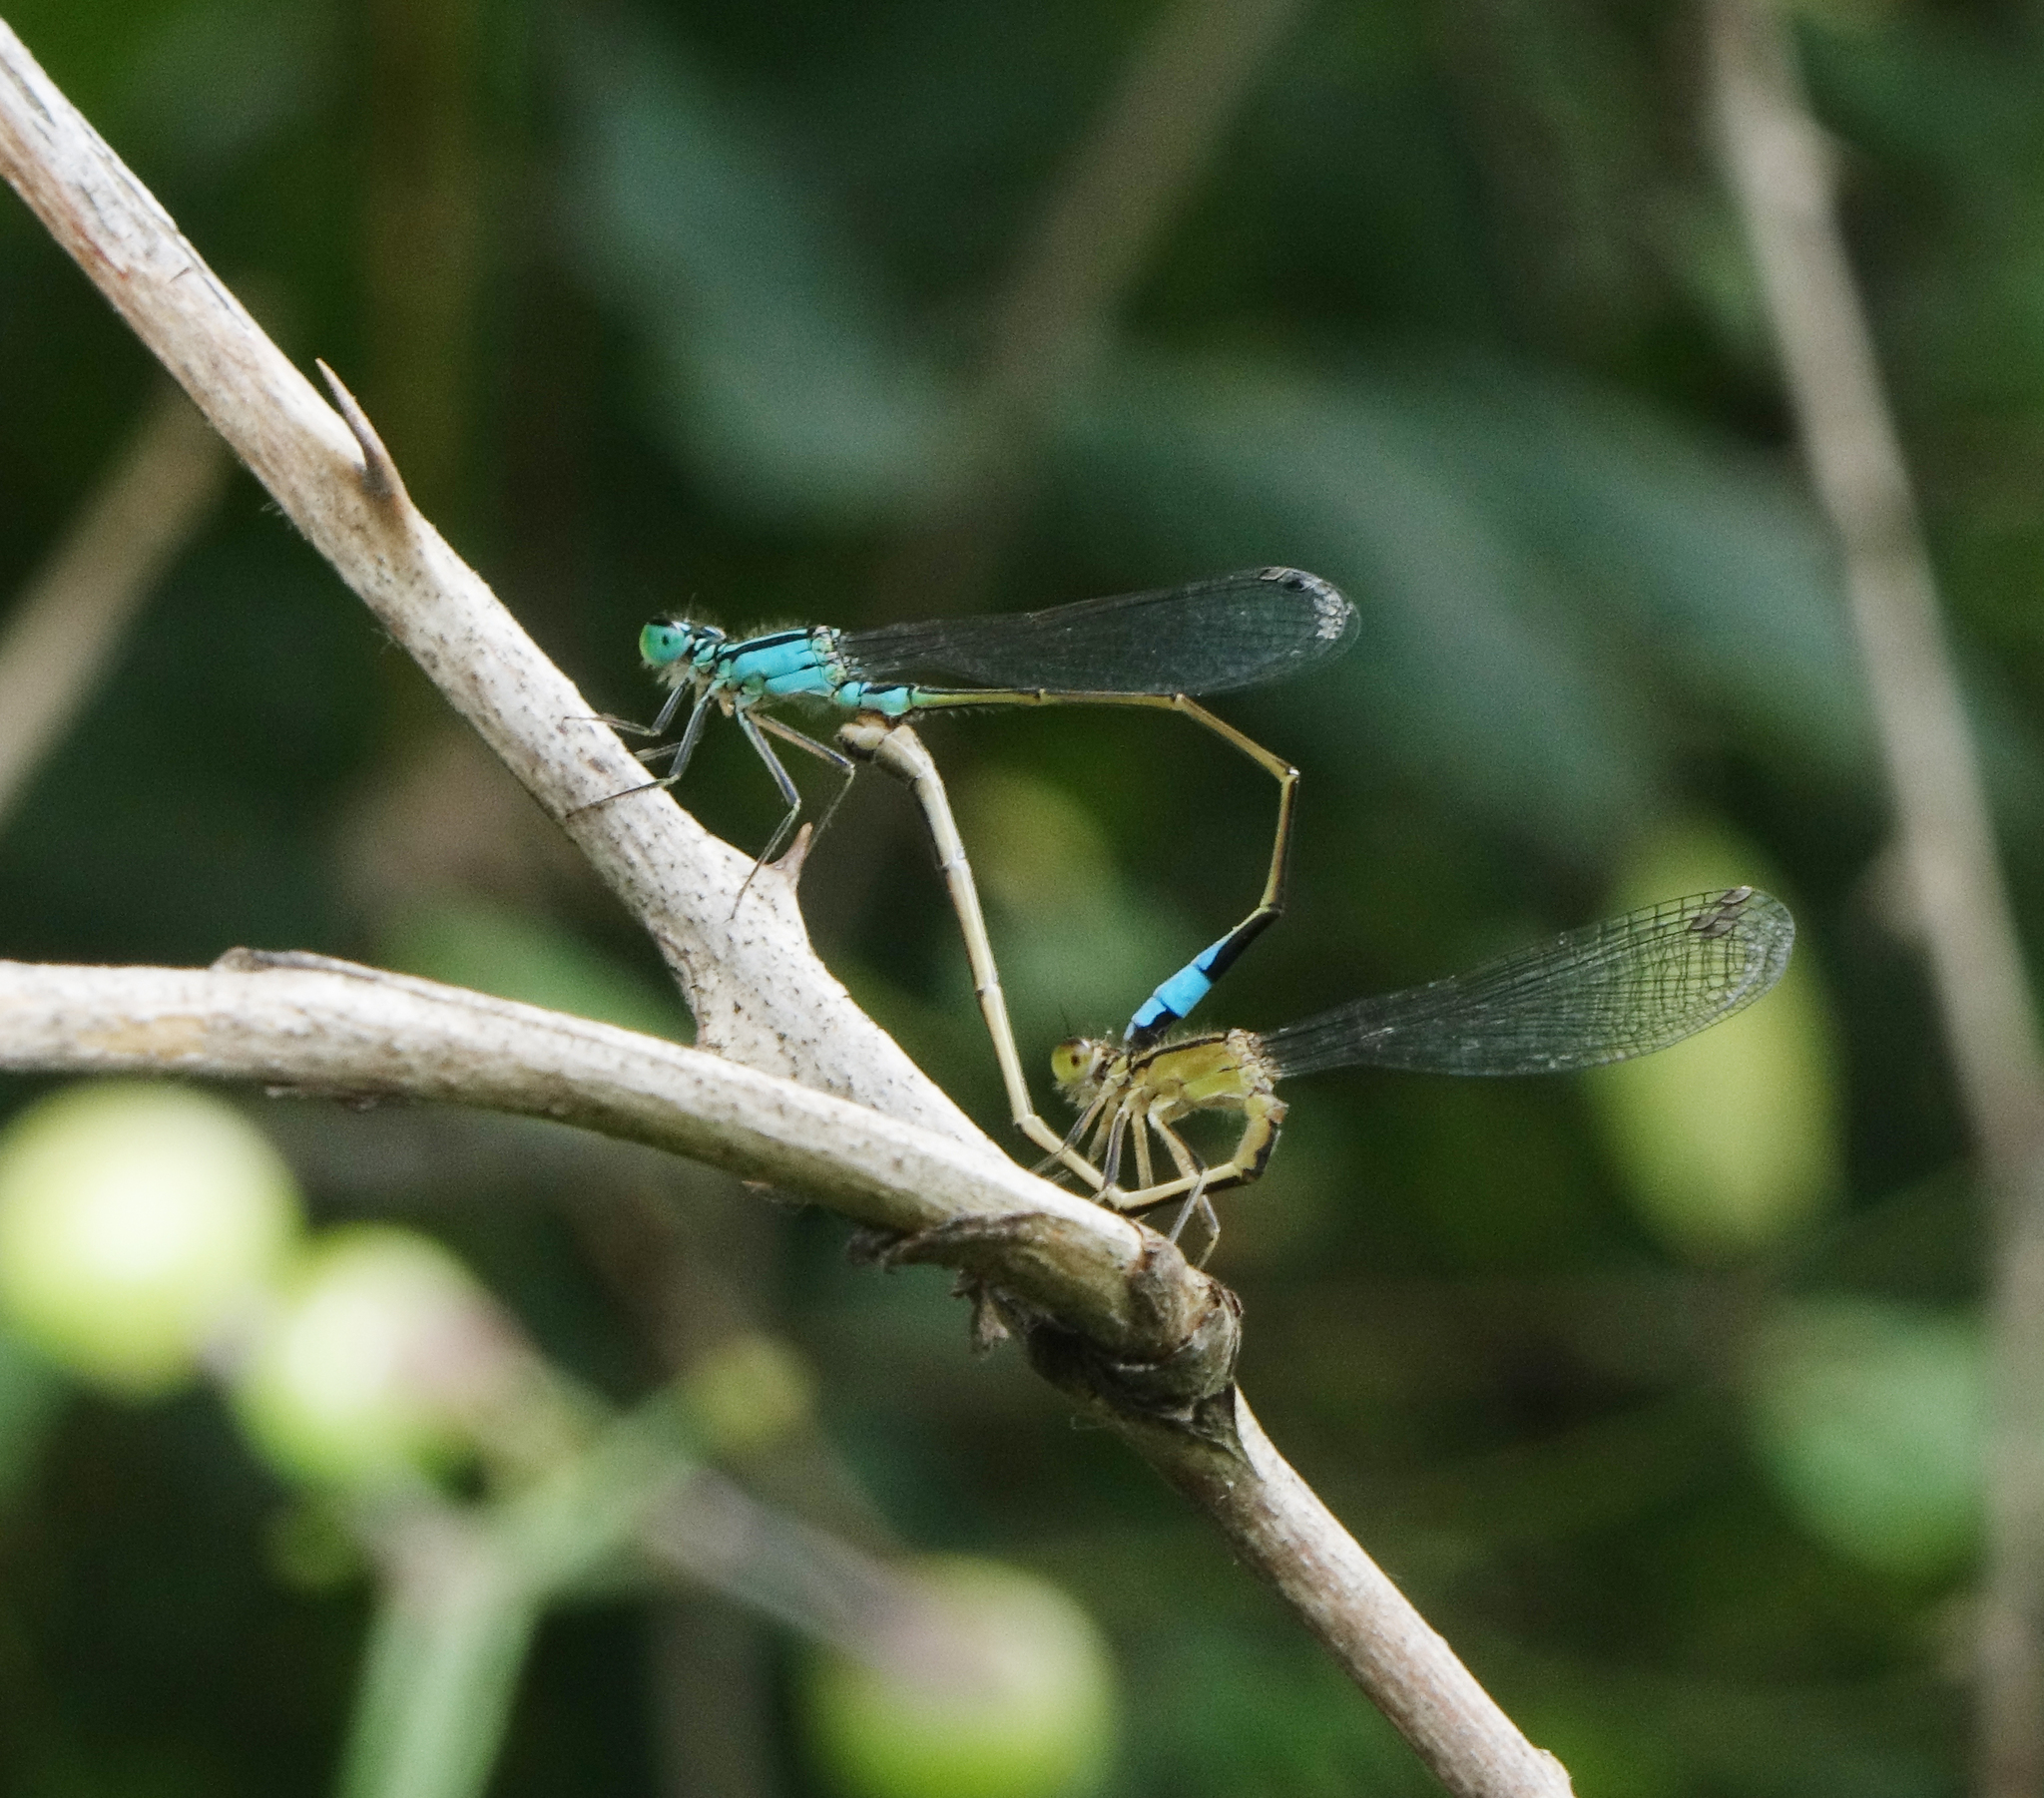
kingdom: Animalia
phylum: Arthropoda
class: Insecta
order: Odonata
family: Coenagrionidae
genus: Ischnura
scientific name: Ischnura elegans
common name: Blue-tailed damselfly
